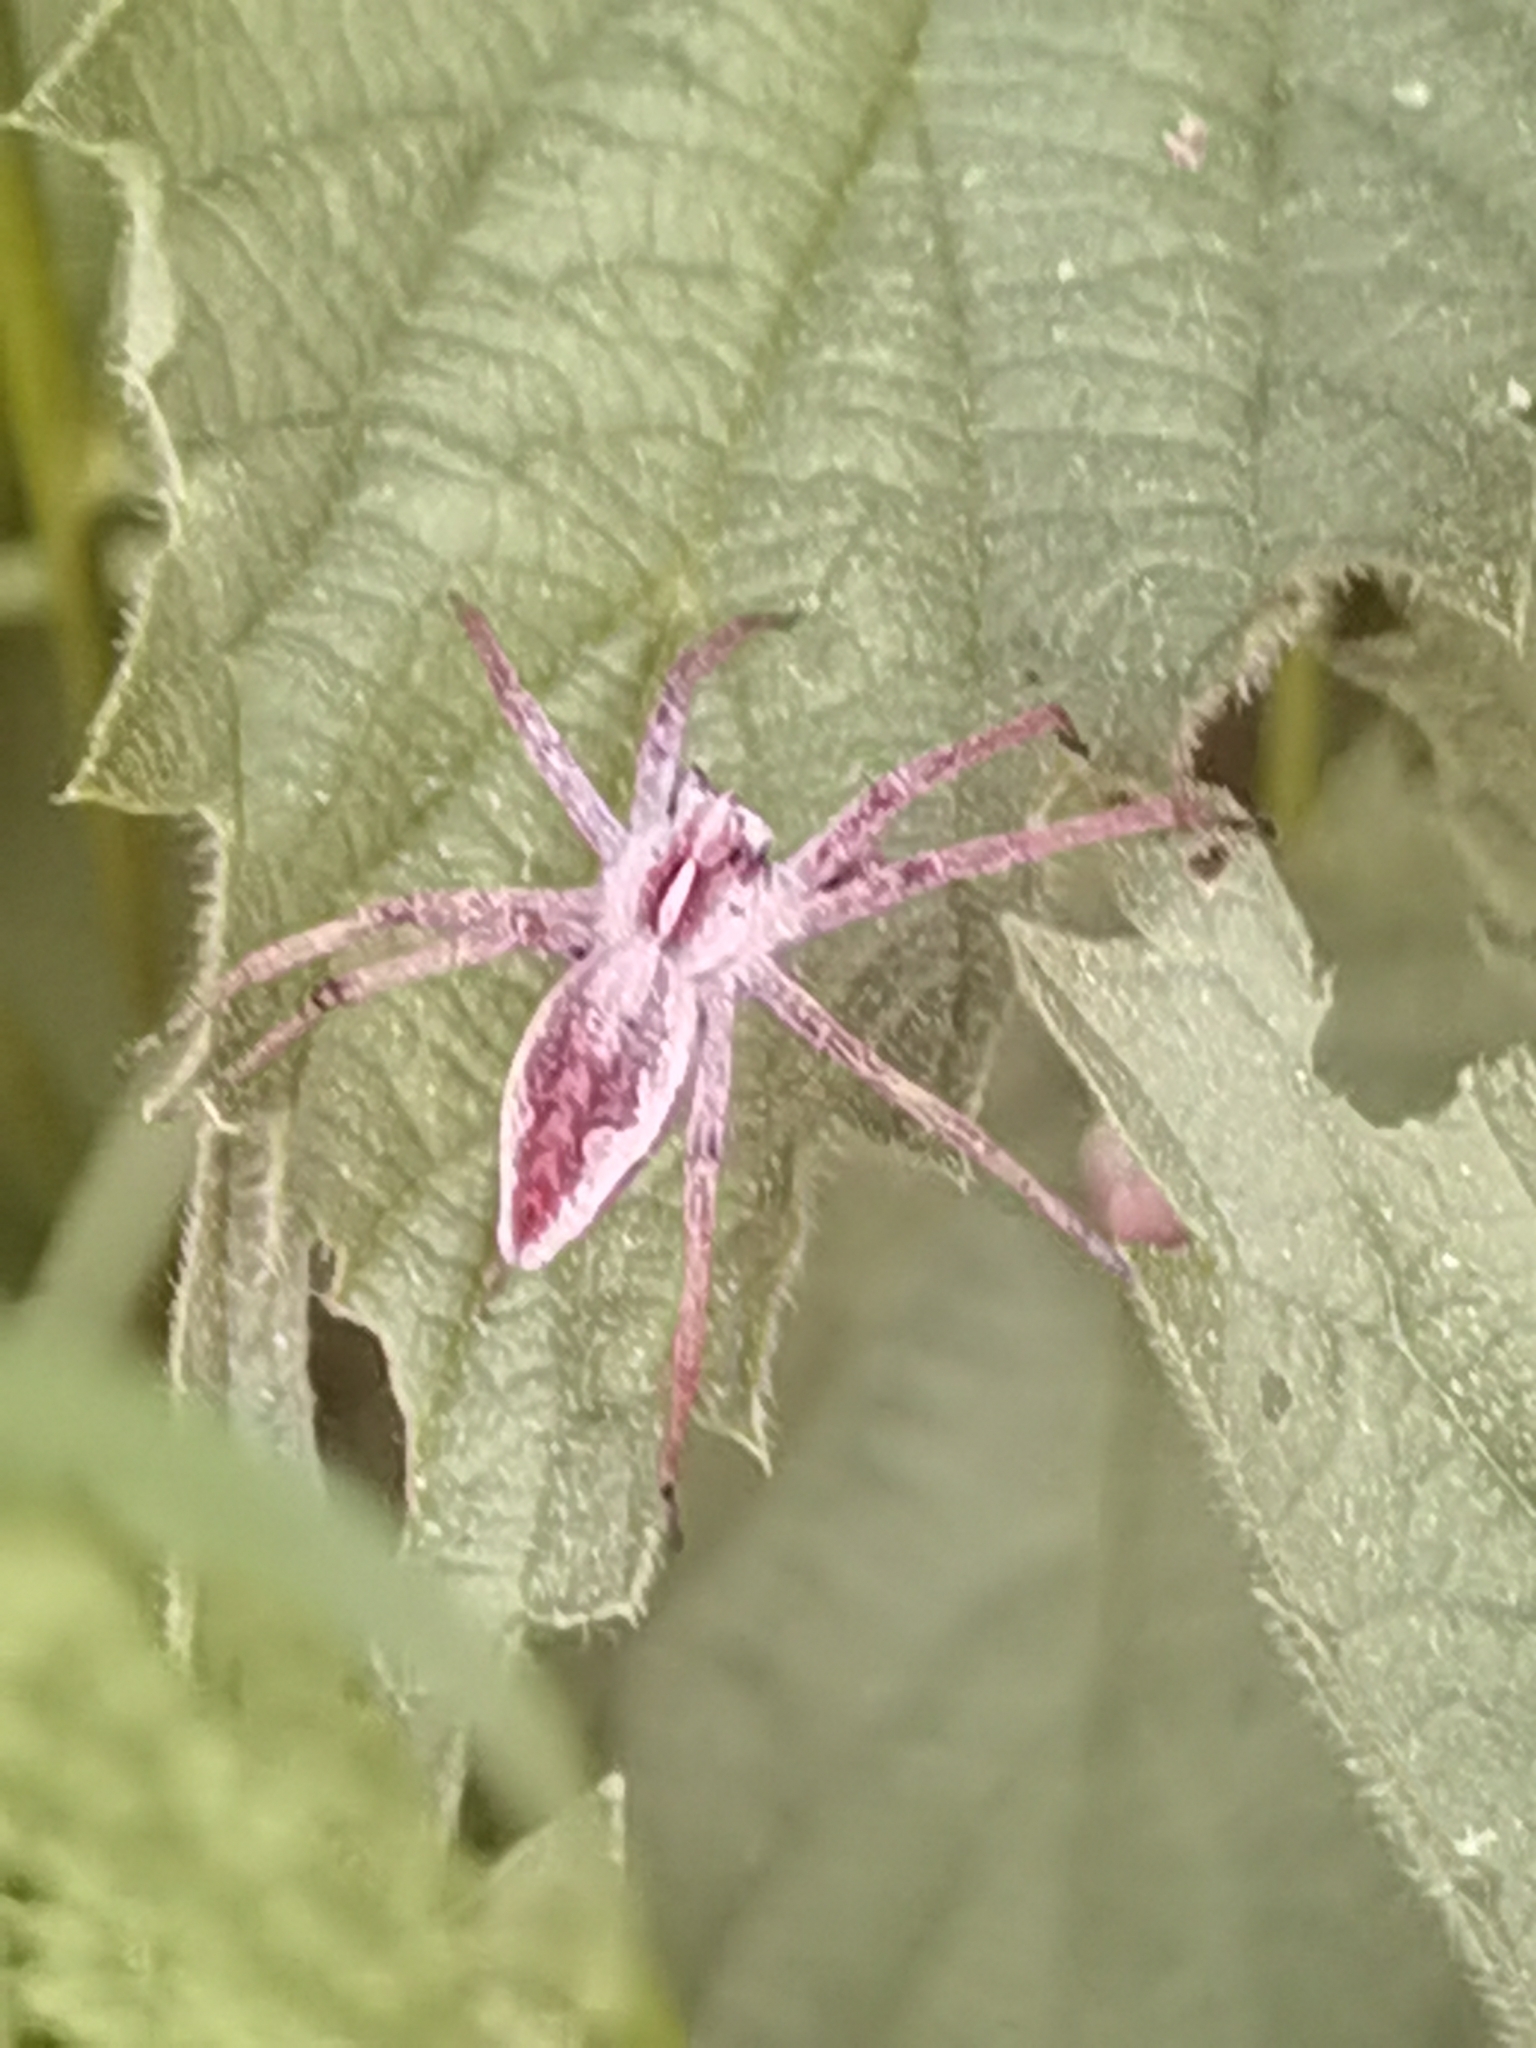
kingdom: Animalia
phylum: Arthropoda
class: Arachnida
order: Araneae
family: Pisauridae
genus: Pisaura
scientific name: Pisaura mirabilis
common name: Tent spider
